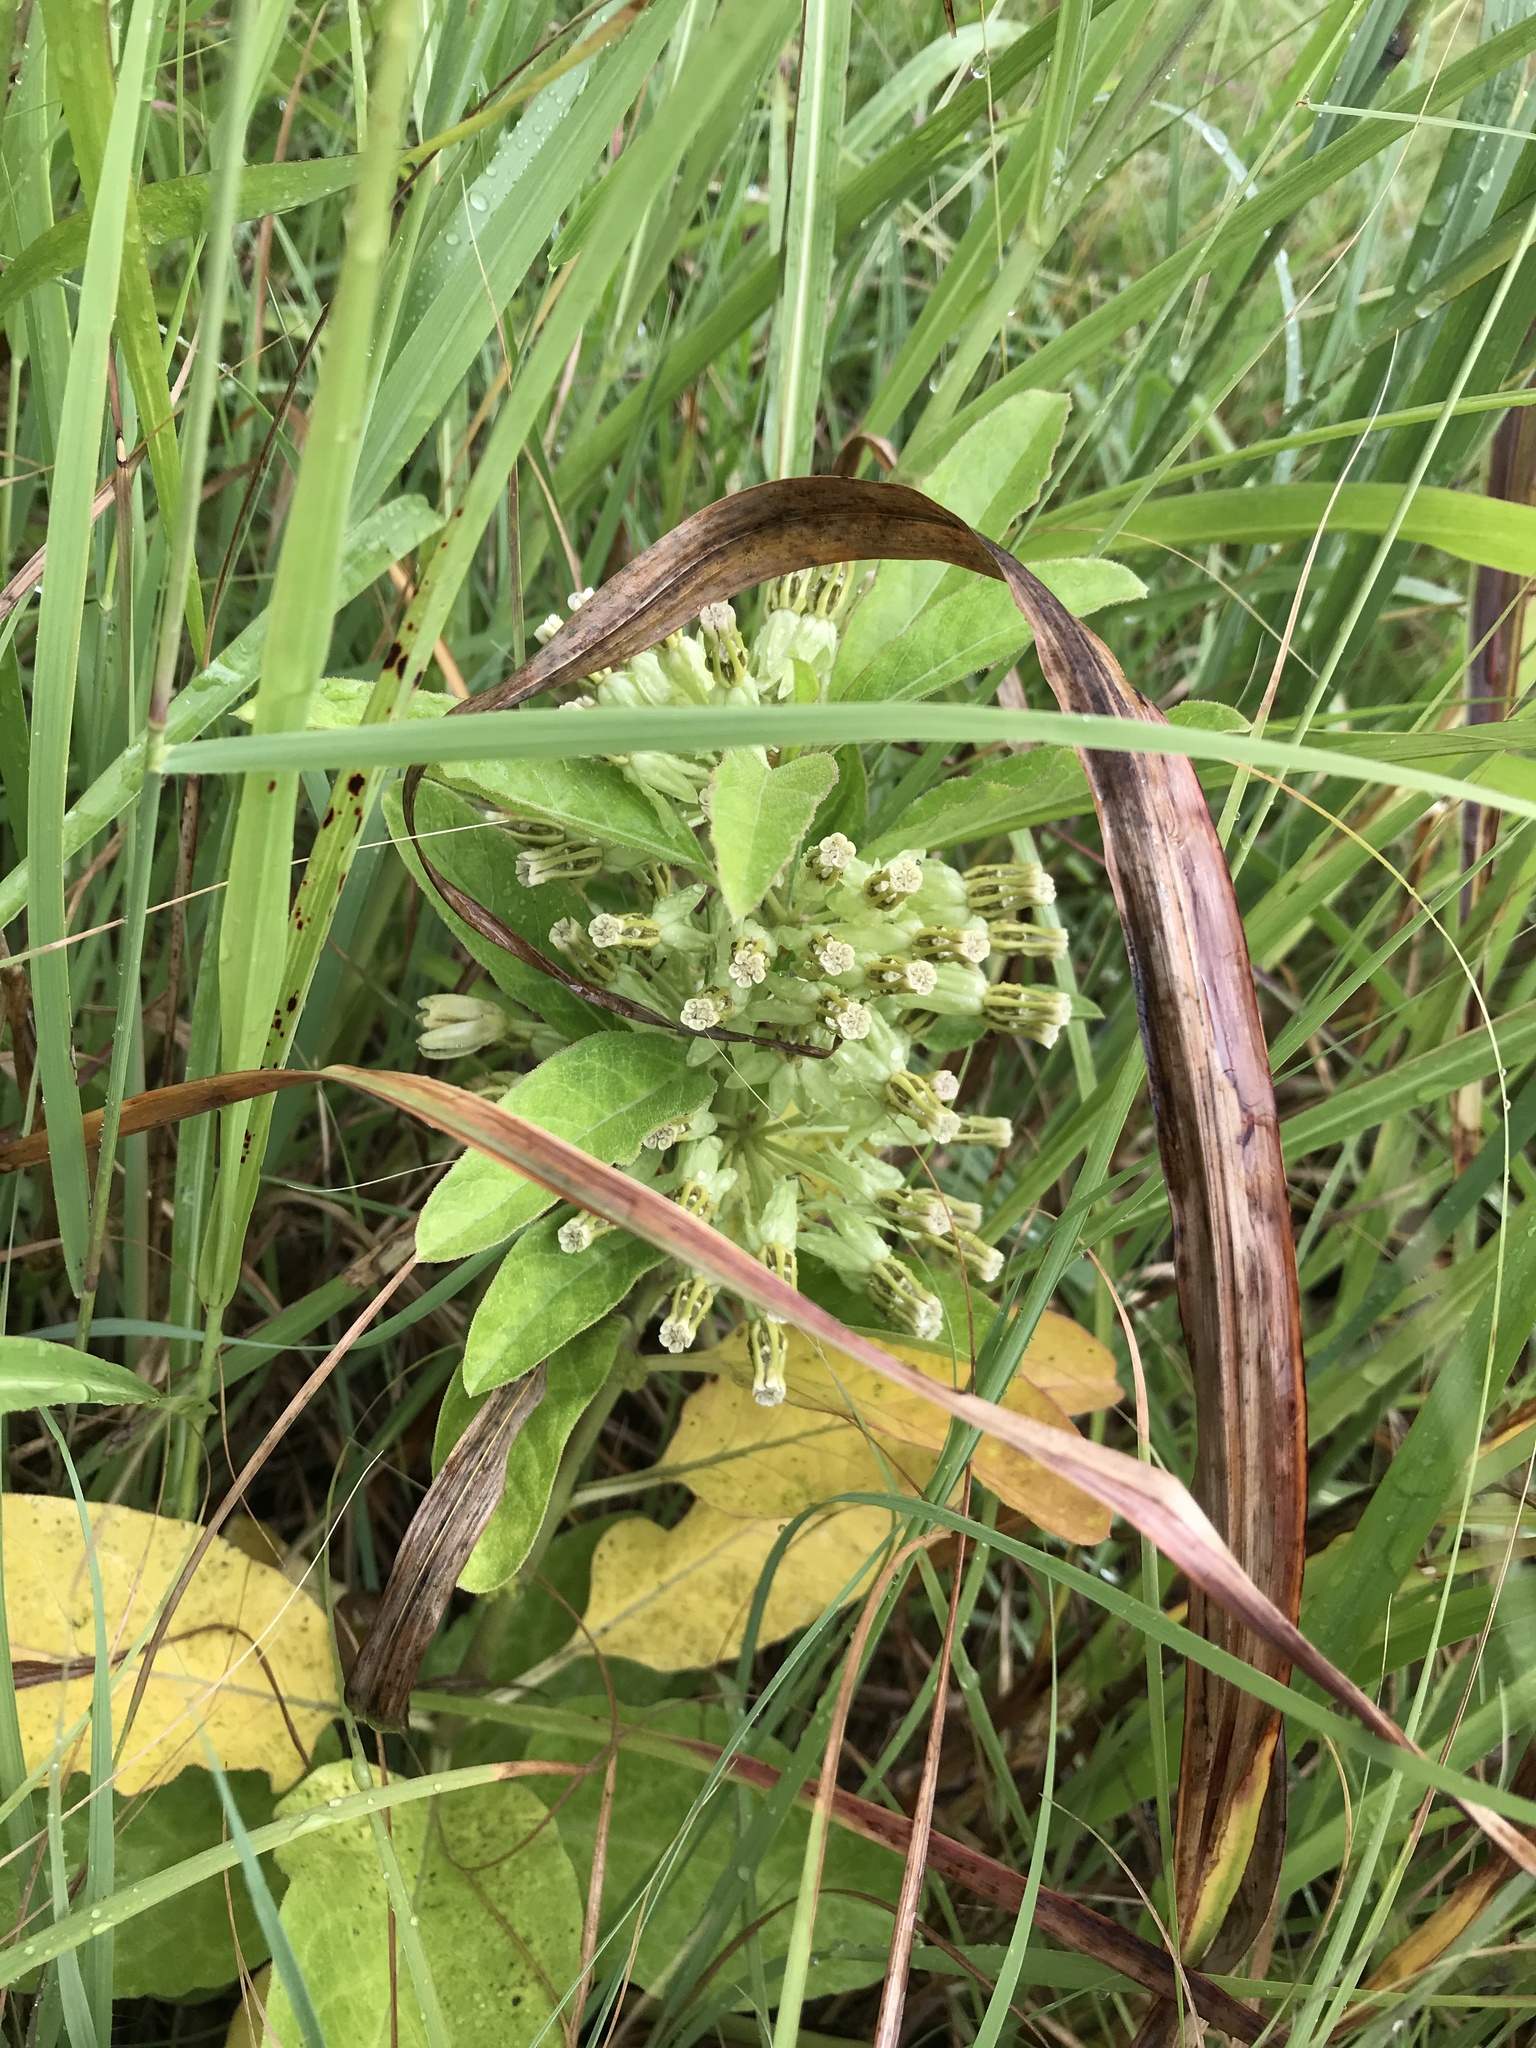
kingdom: Plantae
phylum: Tracheophyta
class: Magnoliopsida
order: Gentianales
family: Apocynaceae
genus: Asclepias
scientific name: Asclepias oenotheroides
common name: Zizotes milkweed
